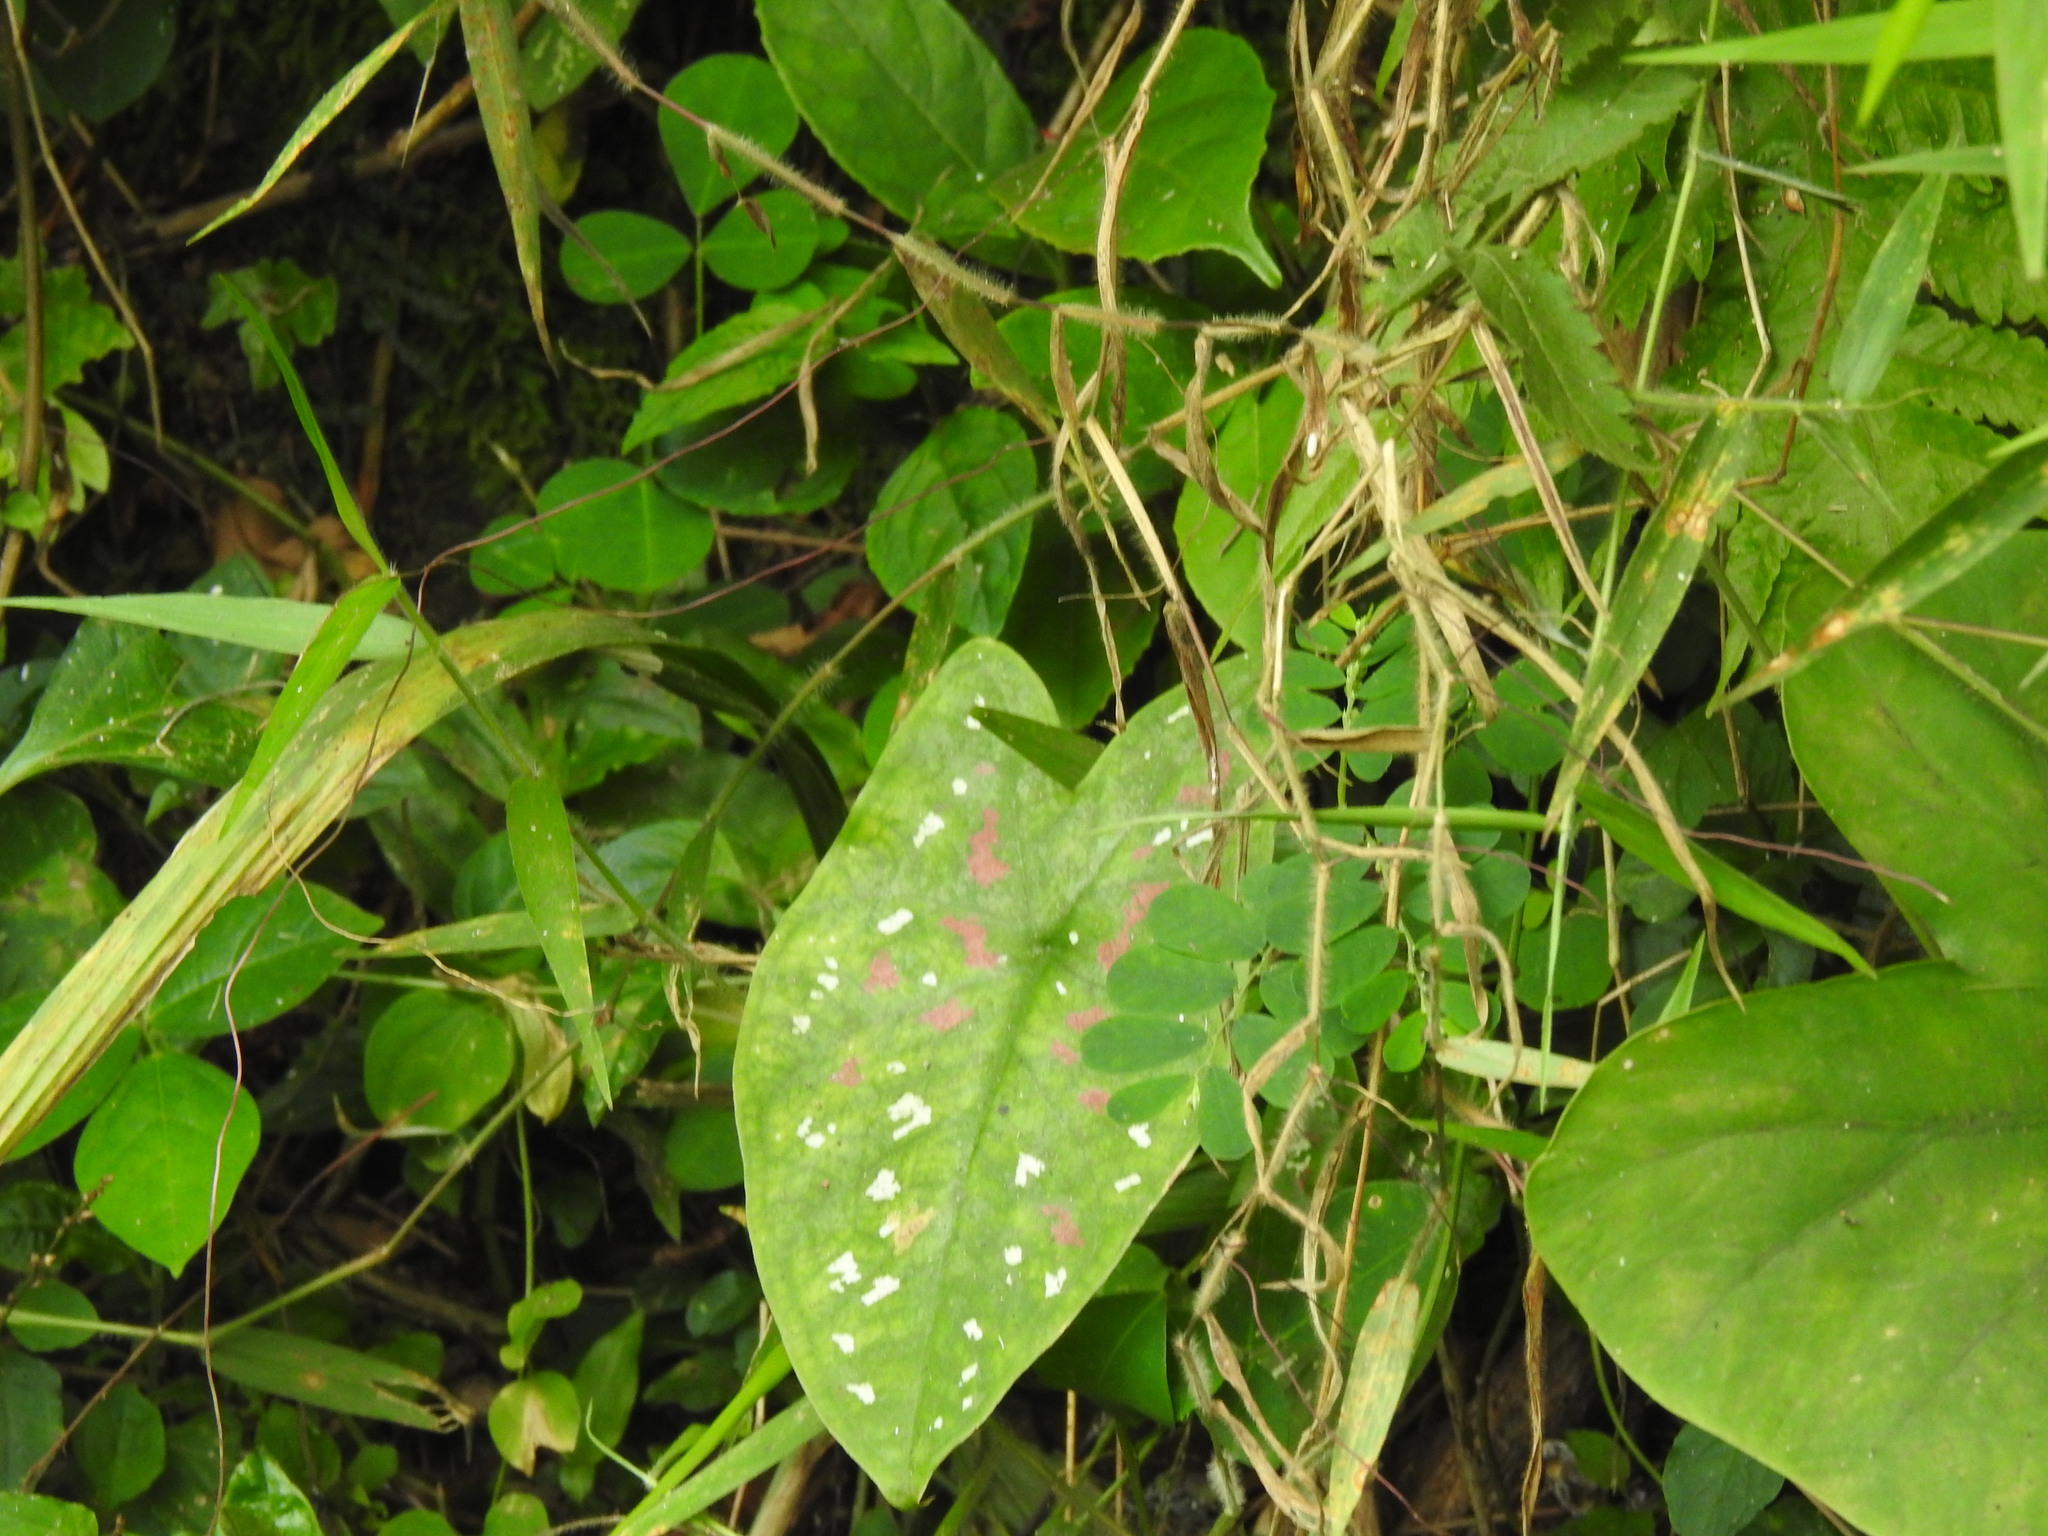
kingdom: Plantae
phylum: Tracheophyta
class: Liliopsida
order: Alismatales
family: Araceae
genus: Caladium
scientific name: Caladium bicolor
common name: Artist's pallet
